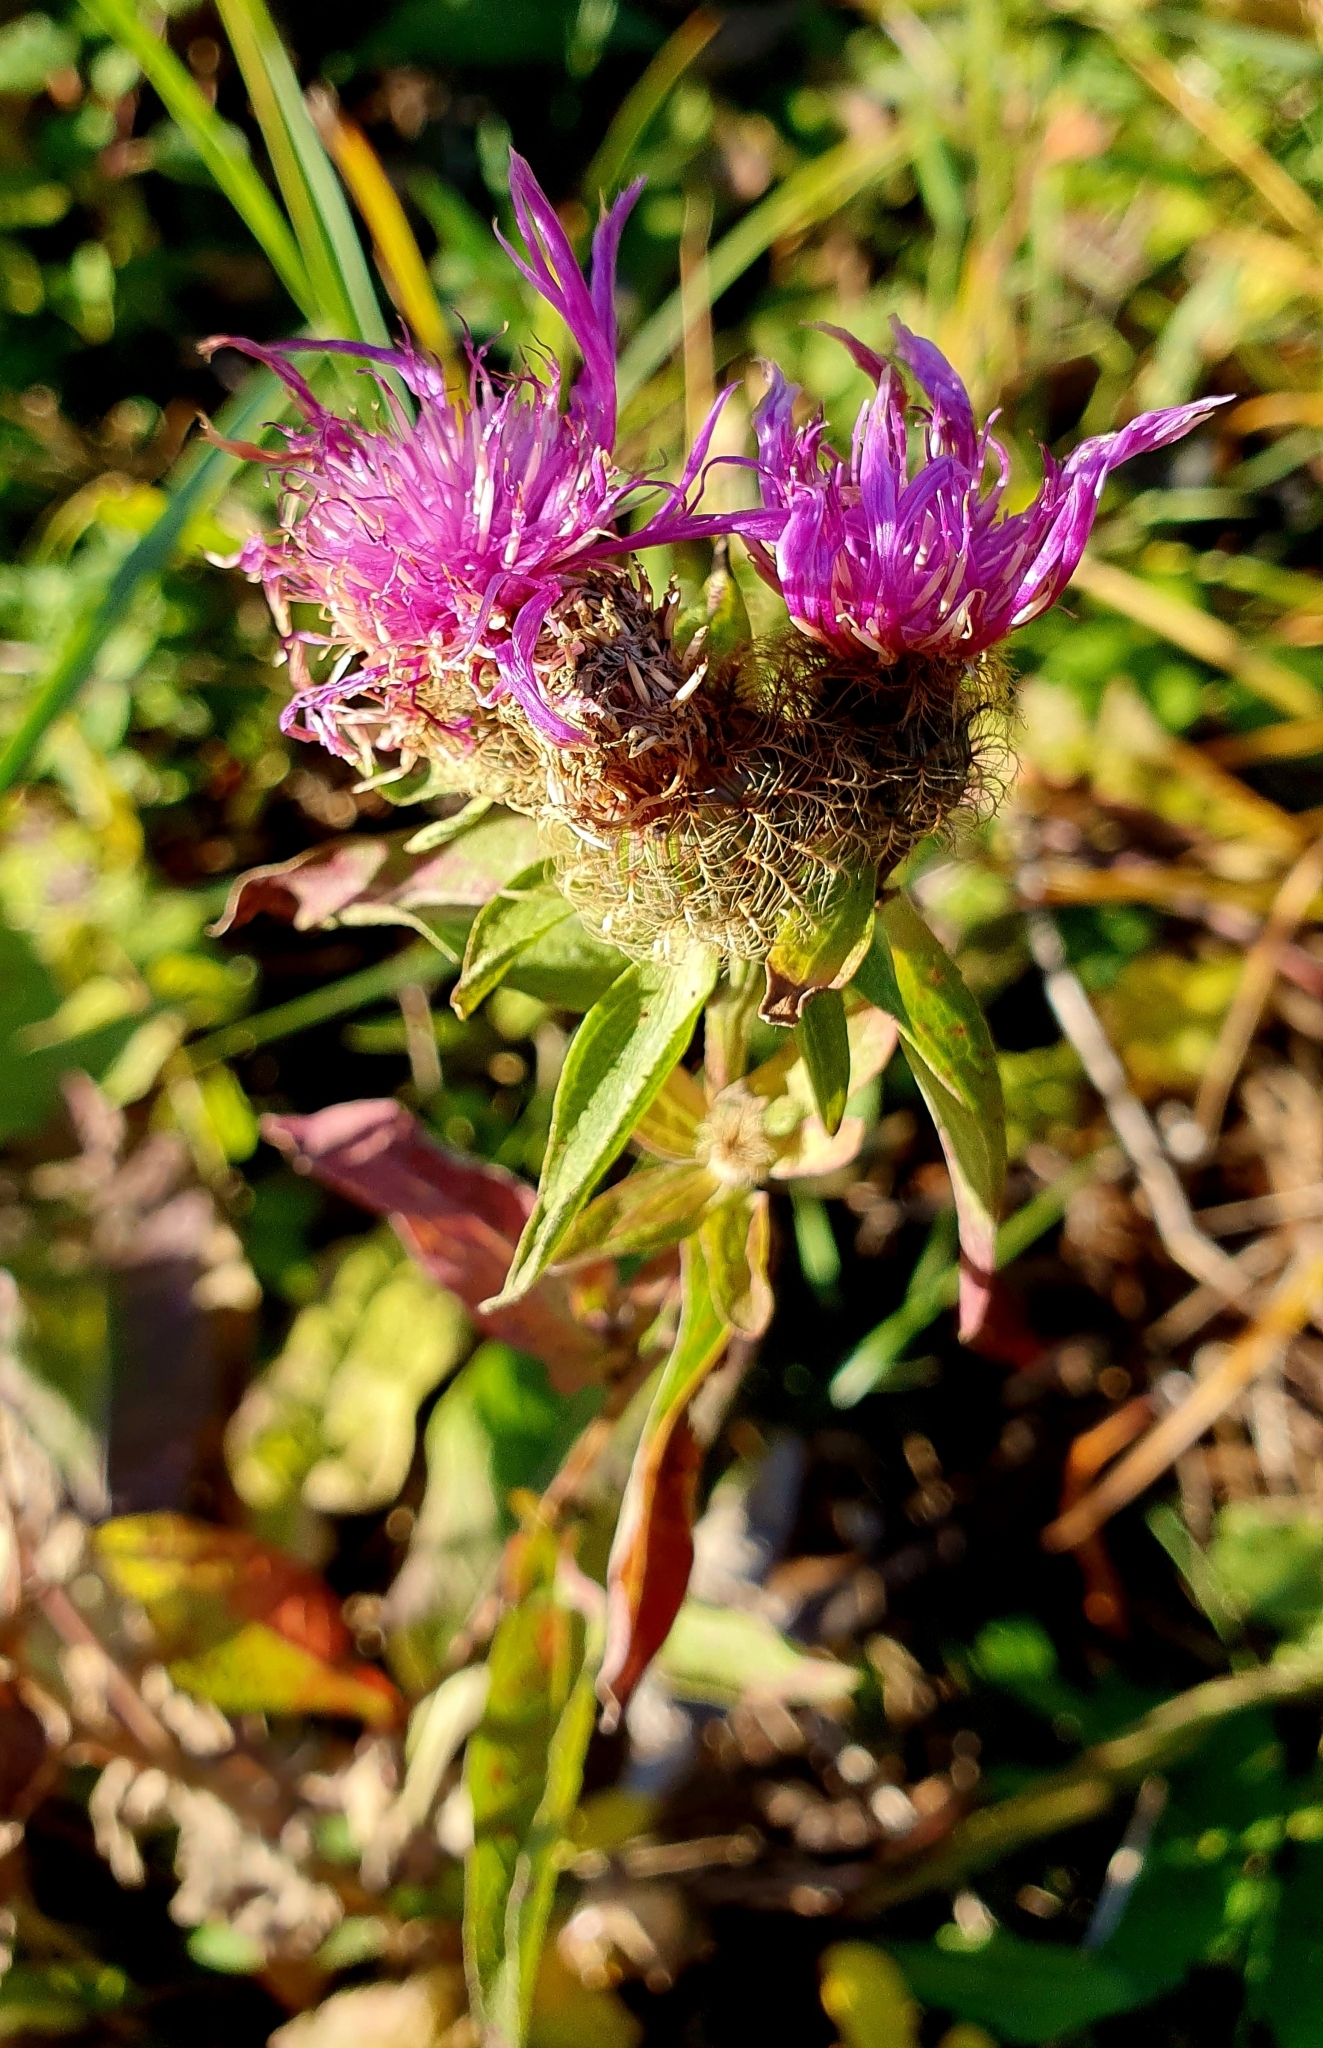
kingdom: Plantae
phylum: Tracheophyta
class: Magnoliopsida
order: Asterales
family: Asteraceae
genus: Centaurea
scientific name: Centaurea phrygia
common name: Wig knapweed
